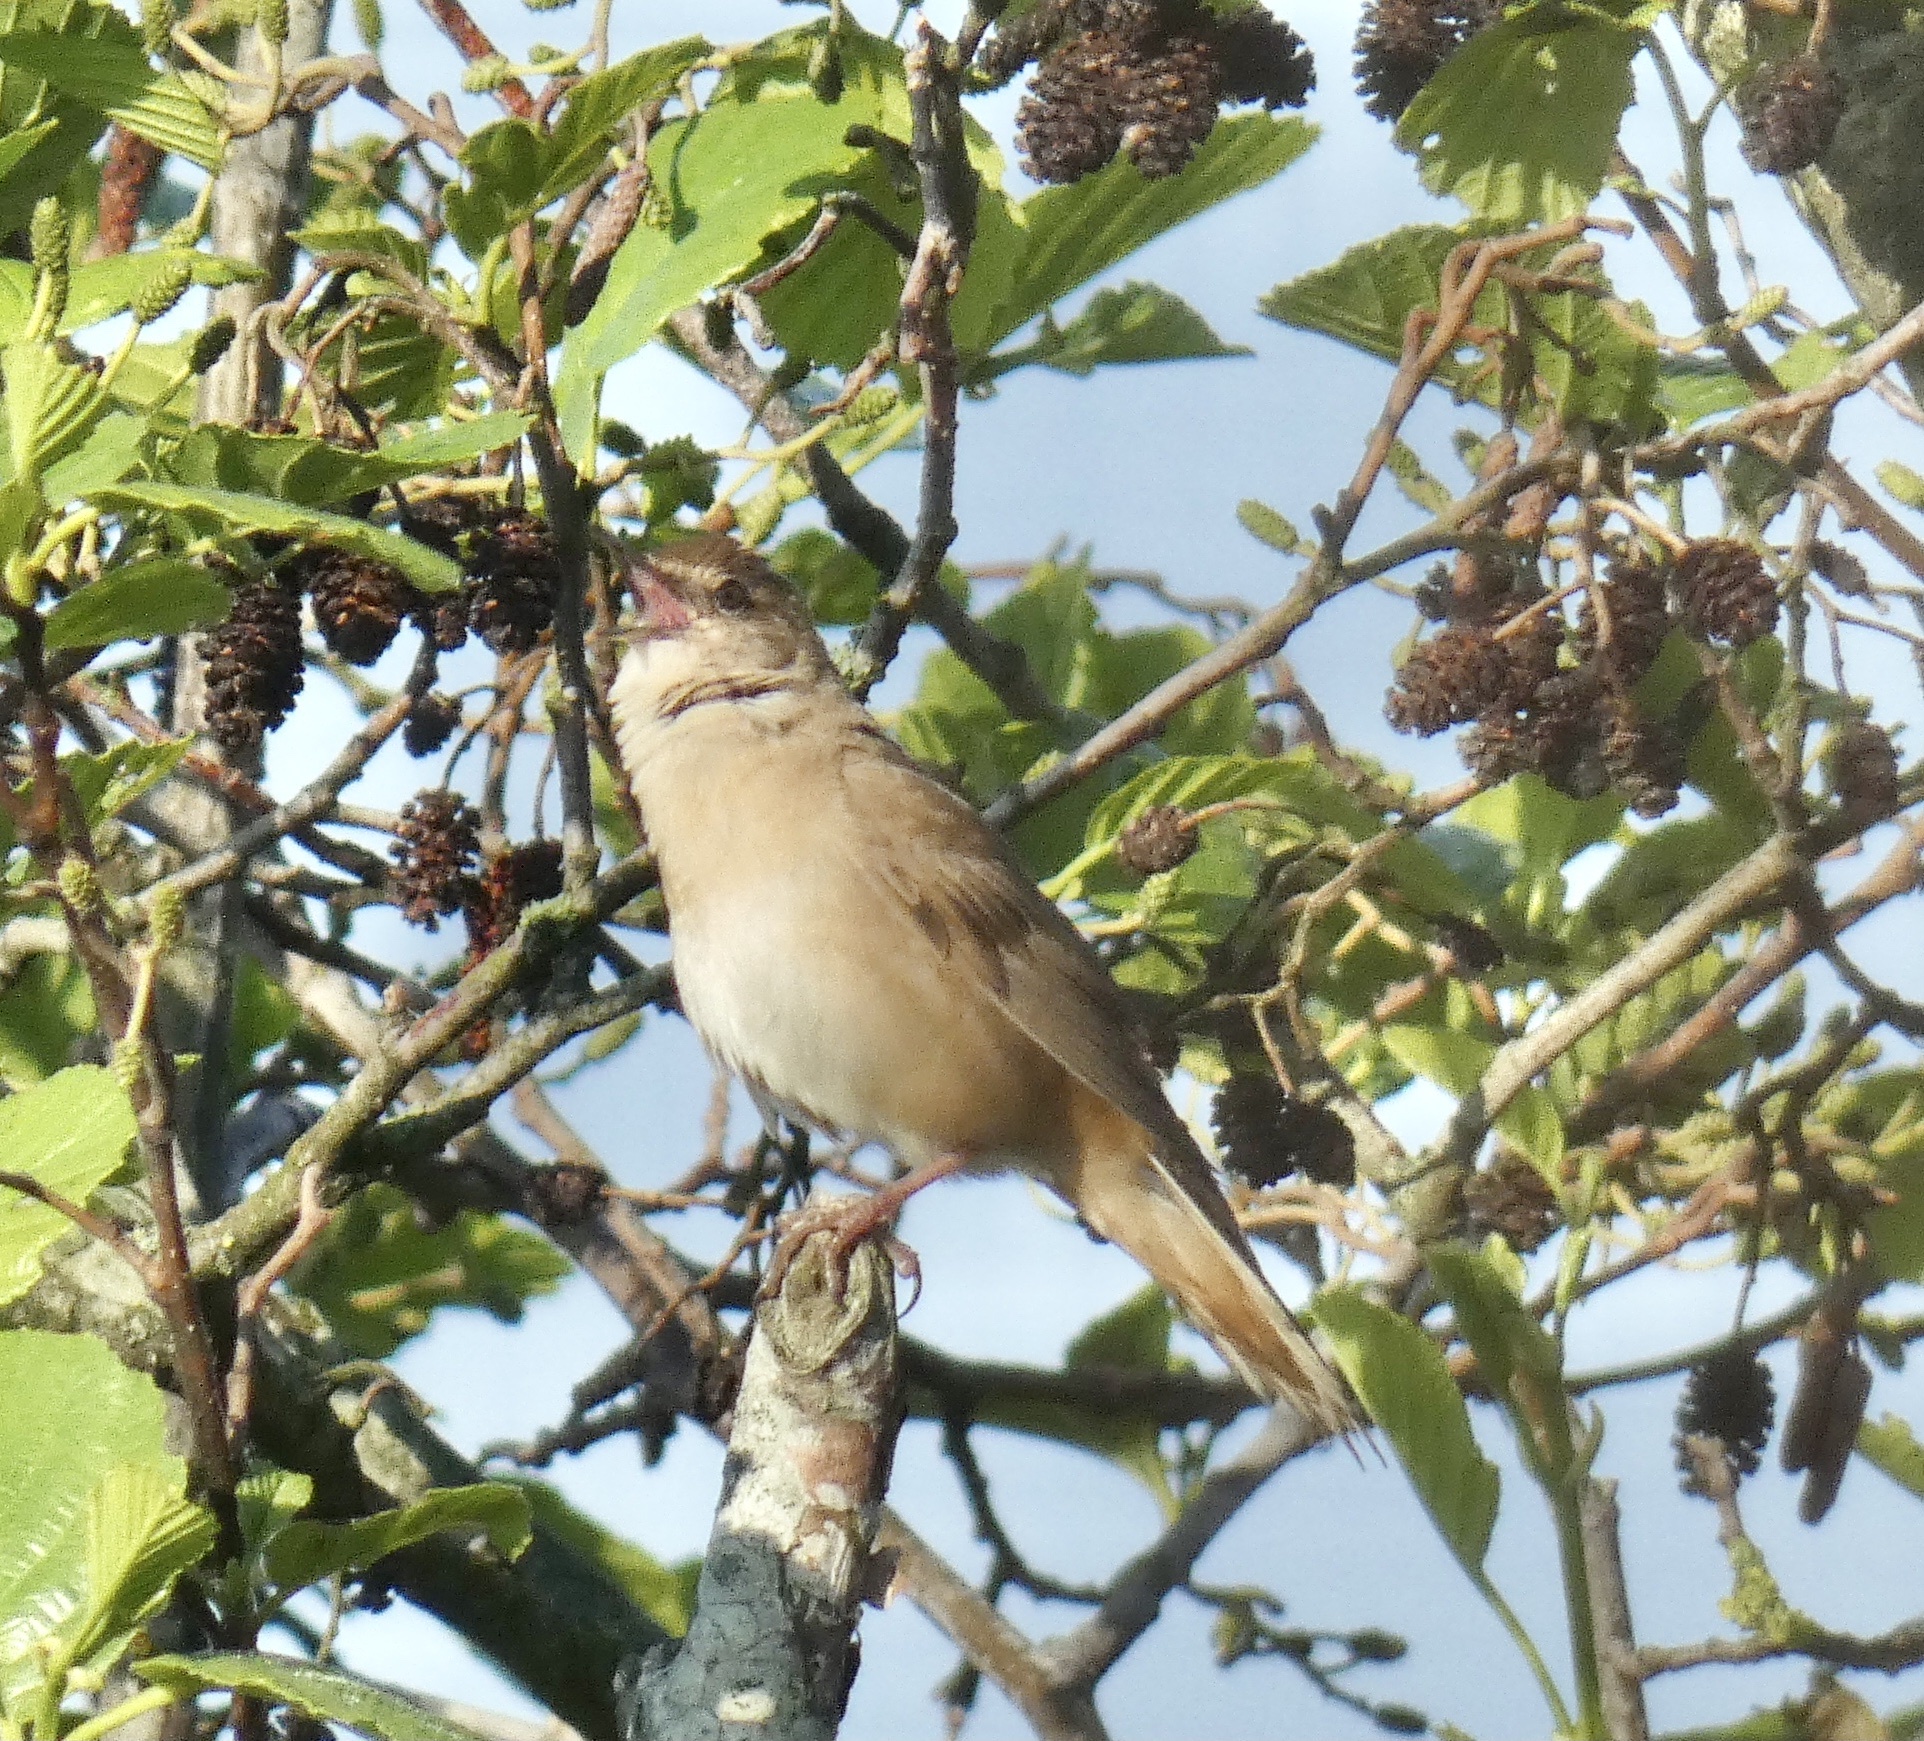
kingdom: Animalia
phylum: Chordata
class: Aves
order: Passeriformes
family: Locustellidae
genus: Locustella
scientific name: Locustella luscinioides
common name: Savi's warbler
